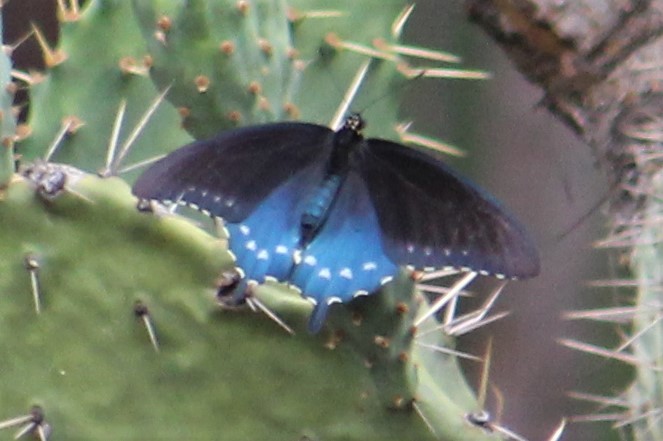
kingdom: Animalia
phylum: Arthropoda
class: Insecta
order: Lepidoptera
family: Papilionidae
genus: Battus
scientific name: Battus philenor
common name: Pipevine swallowtail
